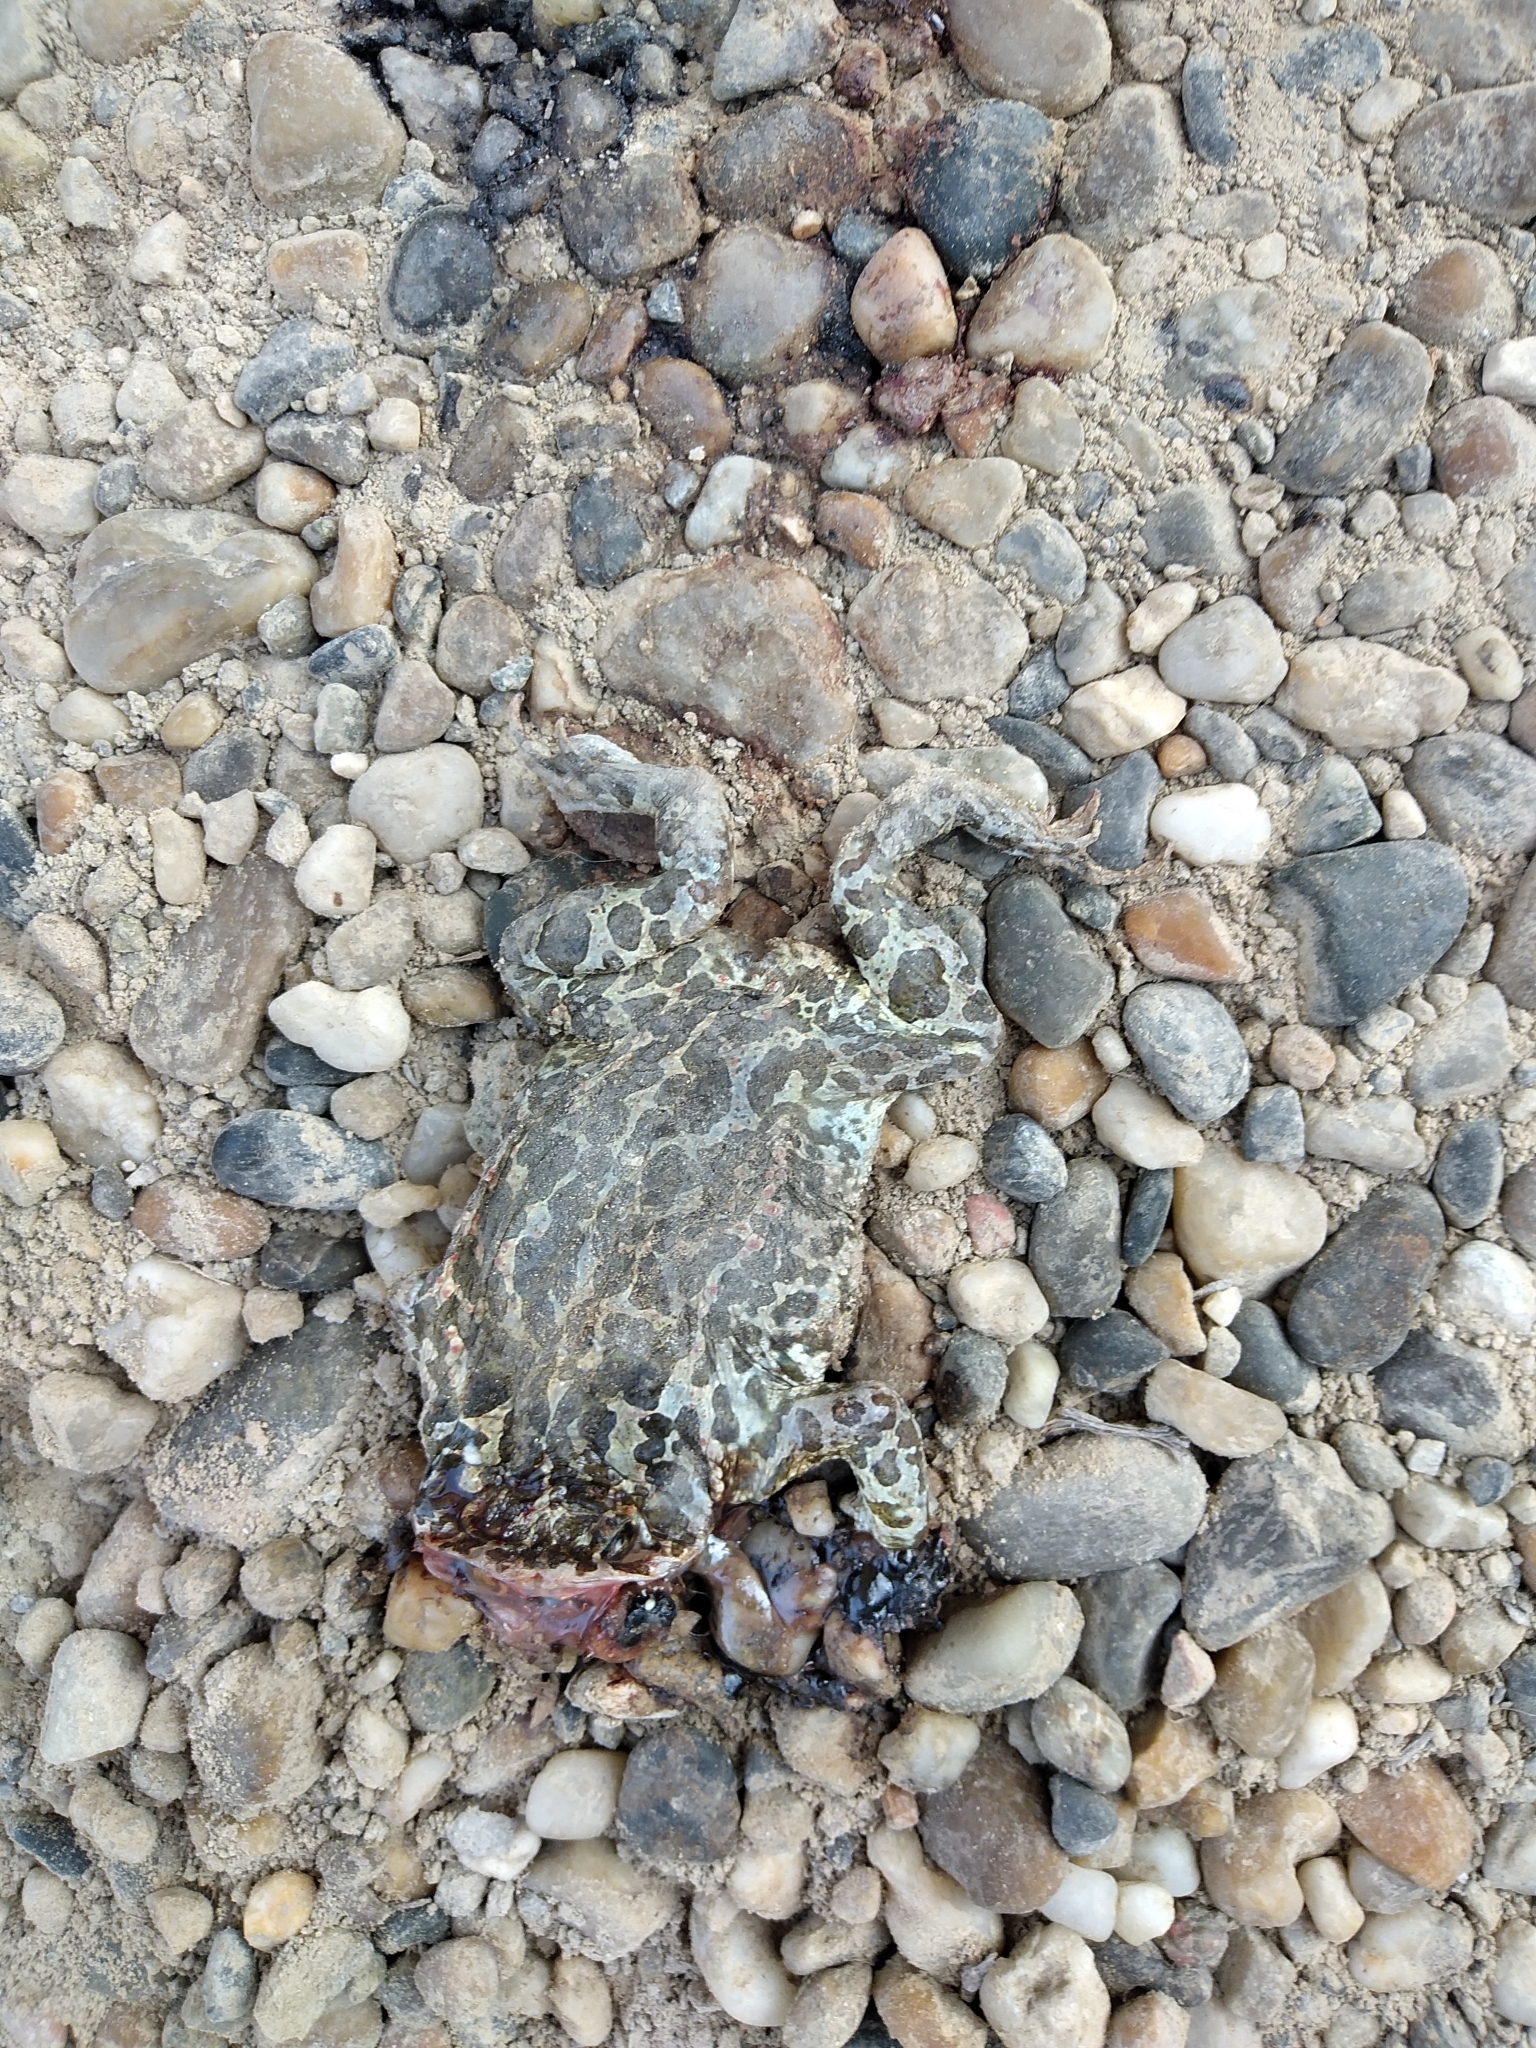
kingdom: Animalia
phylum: Chordata
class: Amphibia
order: Anura
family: Bufonidae
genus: Bufotes
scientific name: Bufotes viridis
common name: European green toad
